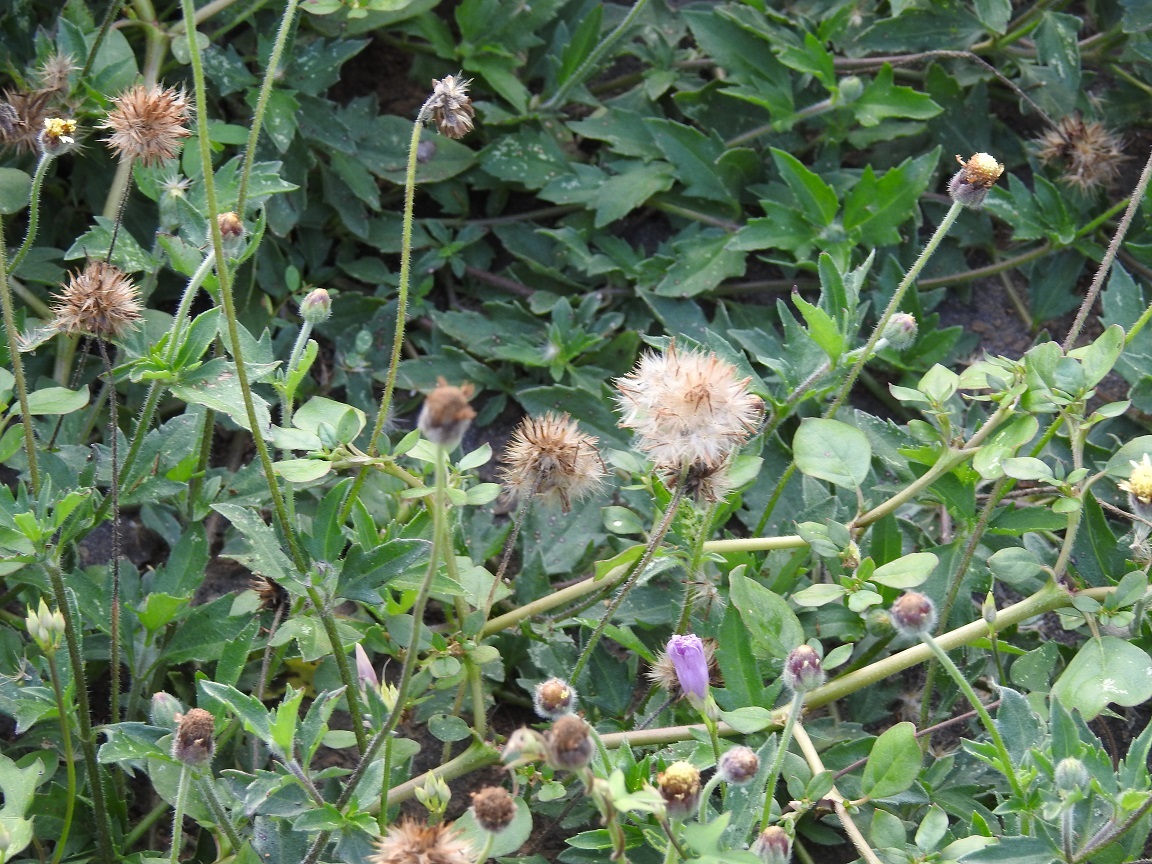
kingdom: Plantae
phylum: Tracheophyta
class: Magnoliopsida
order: Asterales
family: Asteraceae
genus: Tridax
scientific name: Tridax procumbens
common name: Coatbuttons
